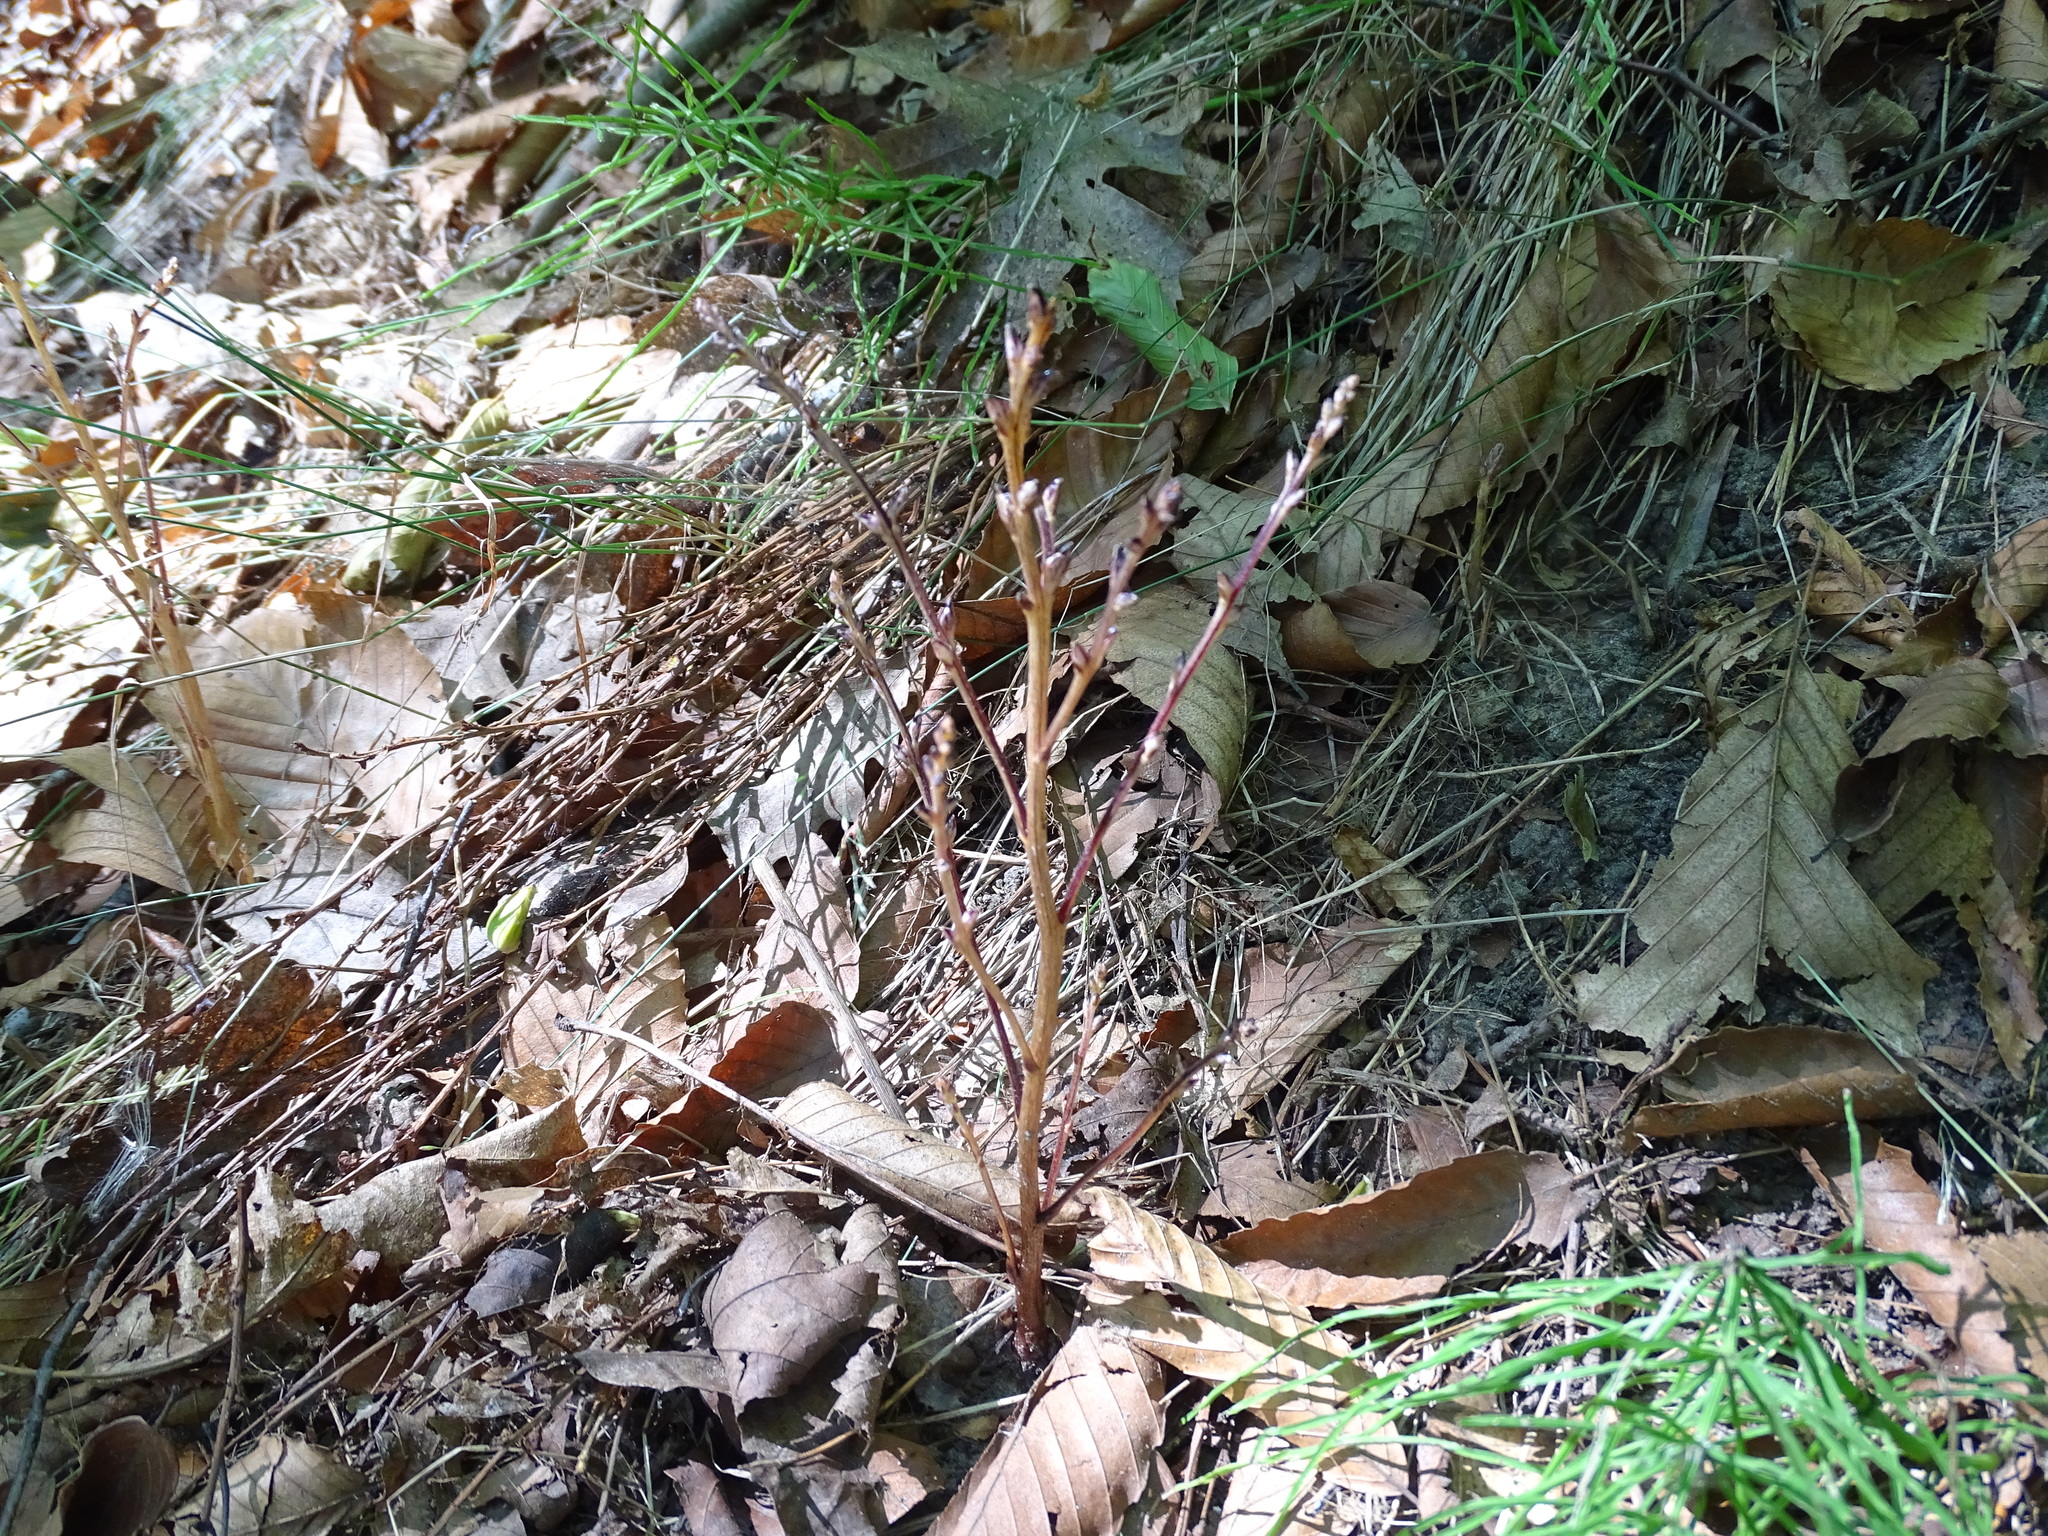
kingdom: Plantae
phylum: Tracheophyta
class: Magnoliopsida
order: Lamiales
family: Orobanchaceae
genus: Epifagus
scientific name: Epifagus virginiana
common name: Beechdrops
